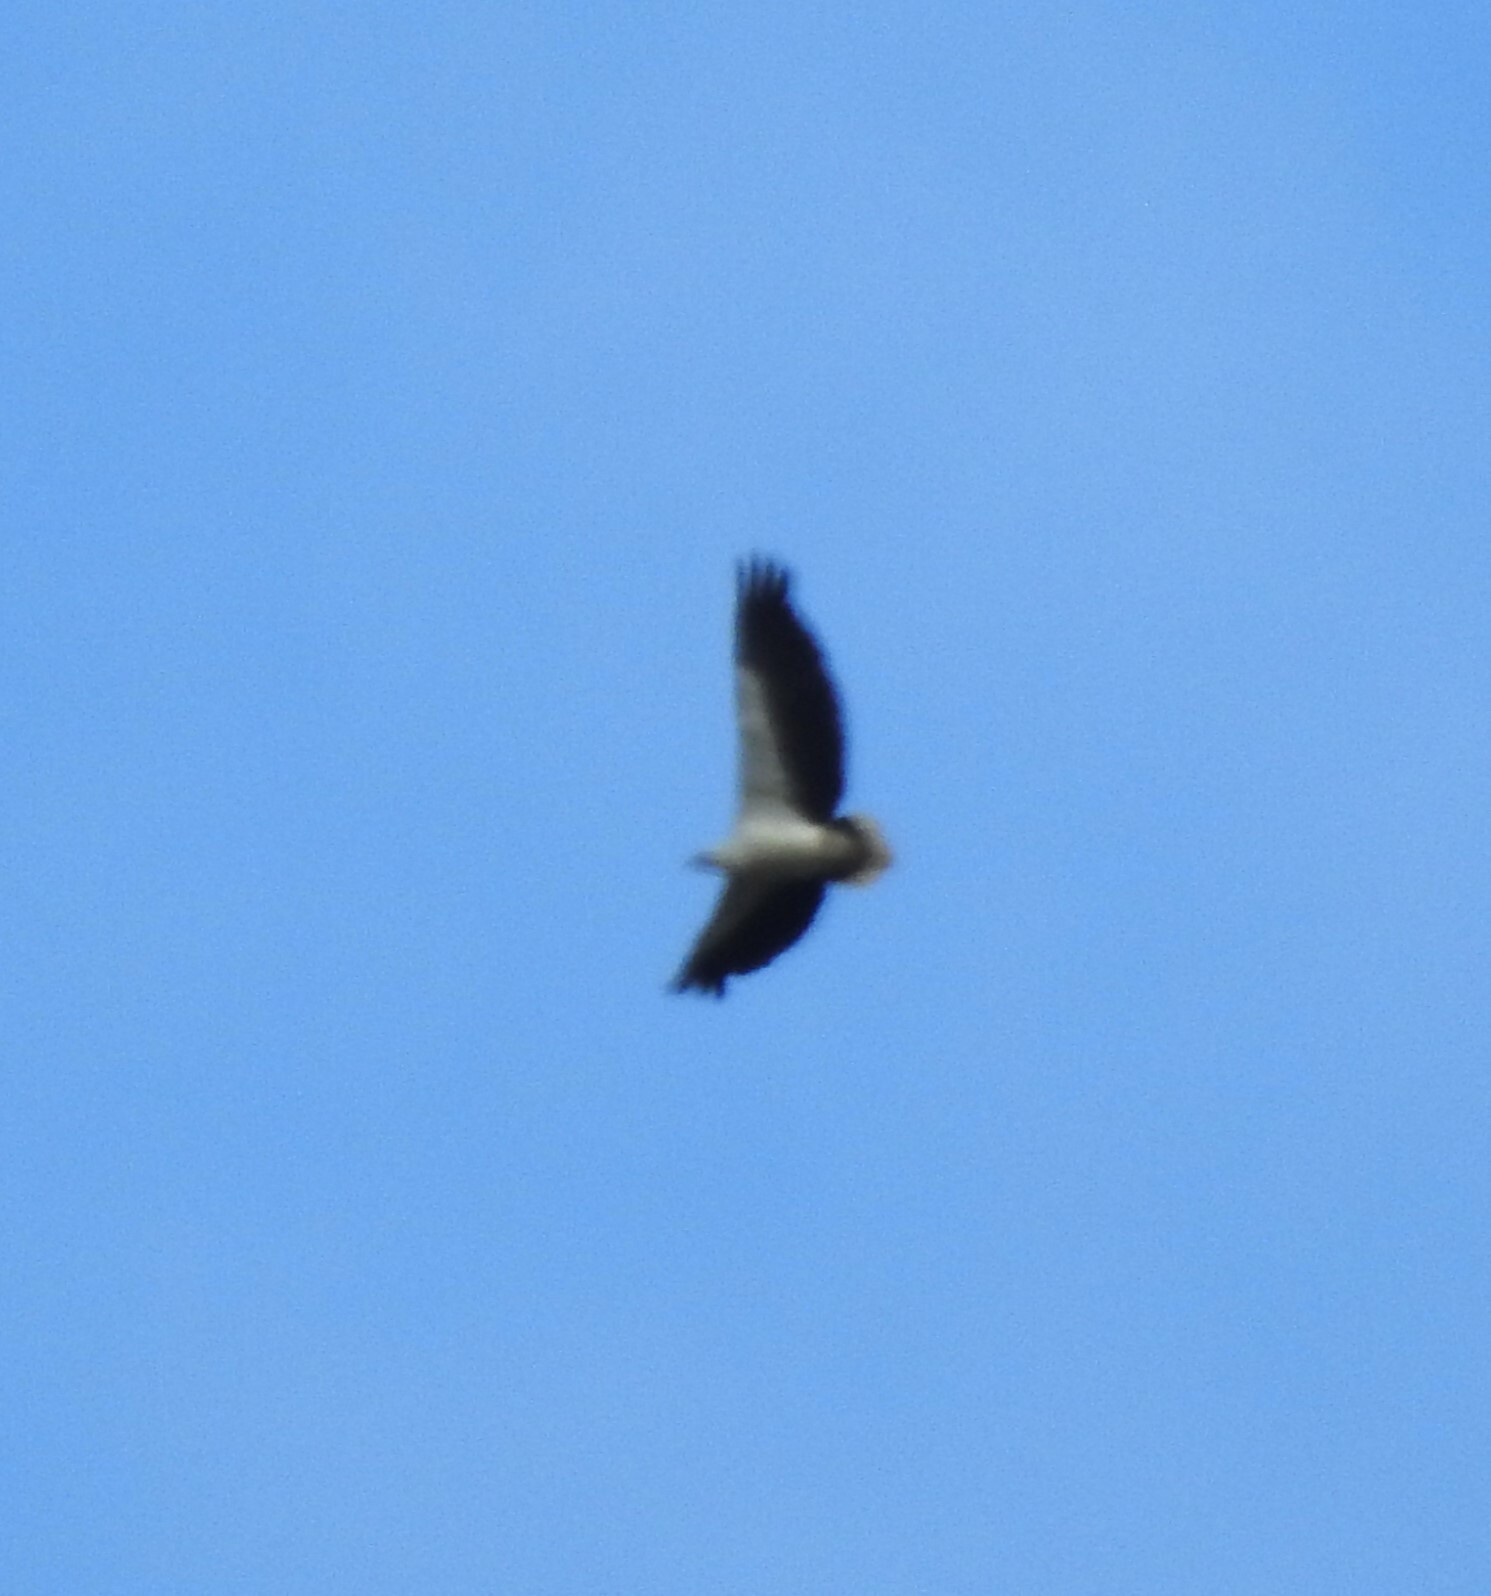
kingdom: Animalia
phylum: Chordata
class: Aves
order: Accipitriformes
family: Accipitridae
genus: Haliaeetus
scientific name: Haliaeetus leucogaster
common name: White-bellied sea eagle
